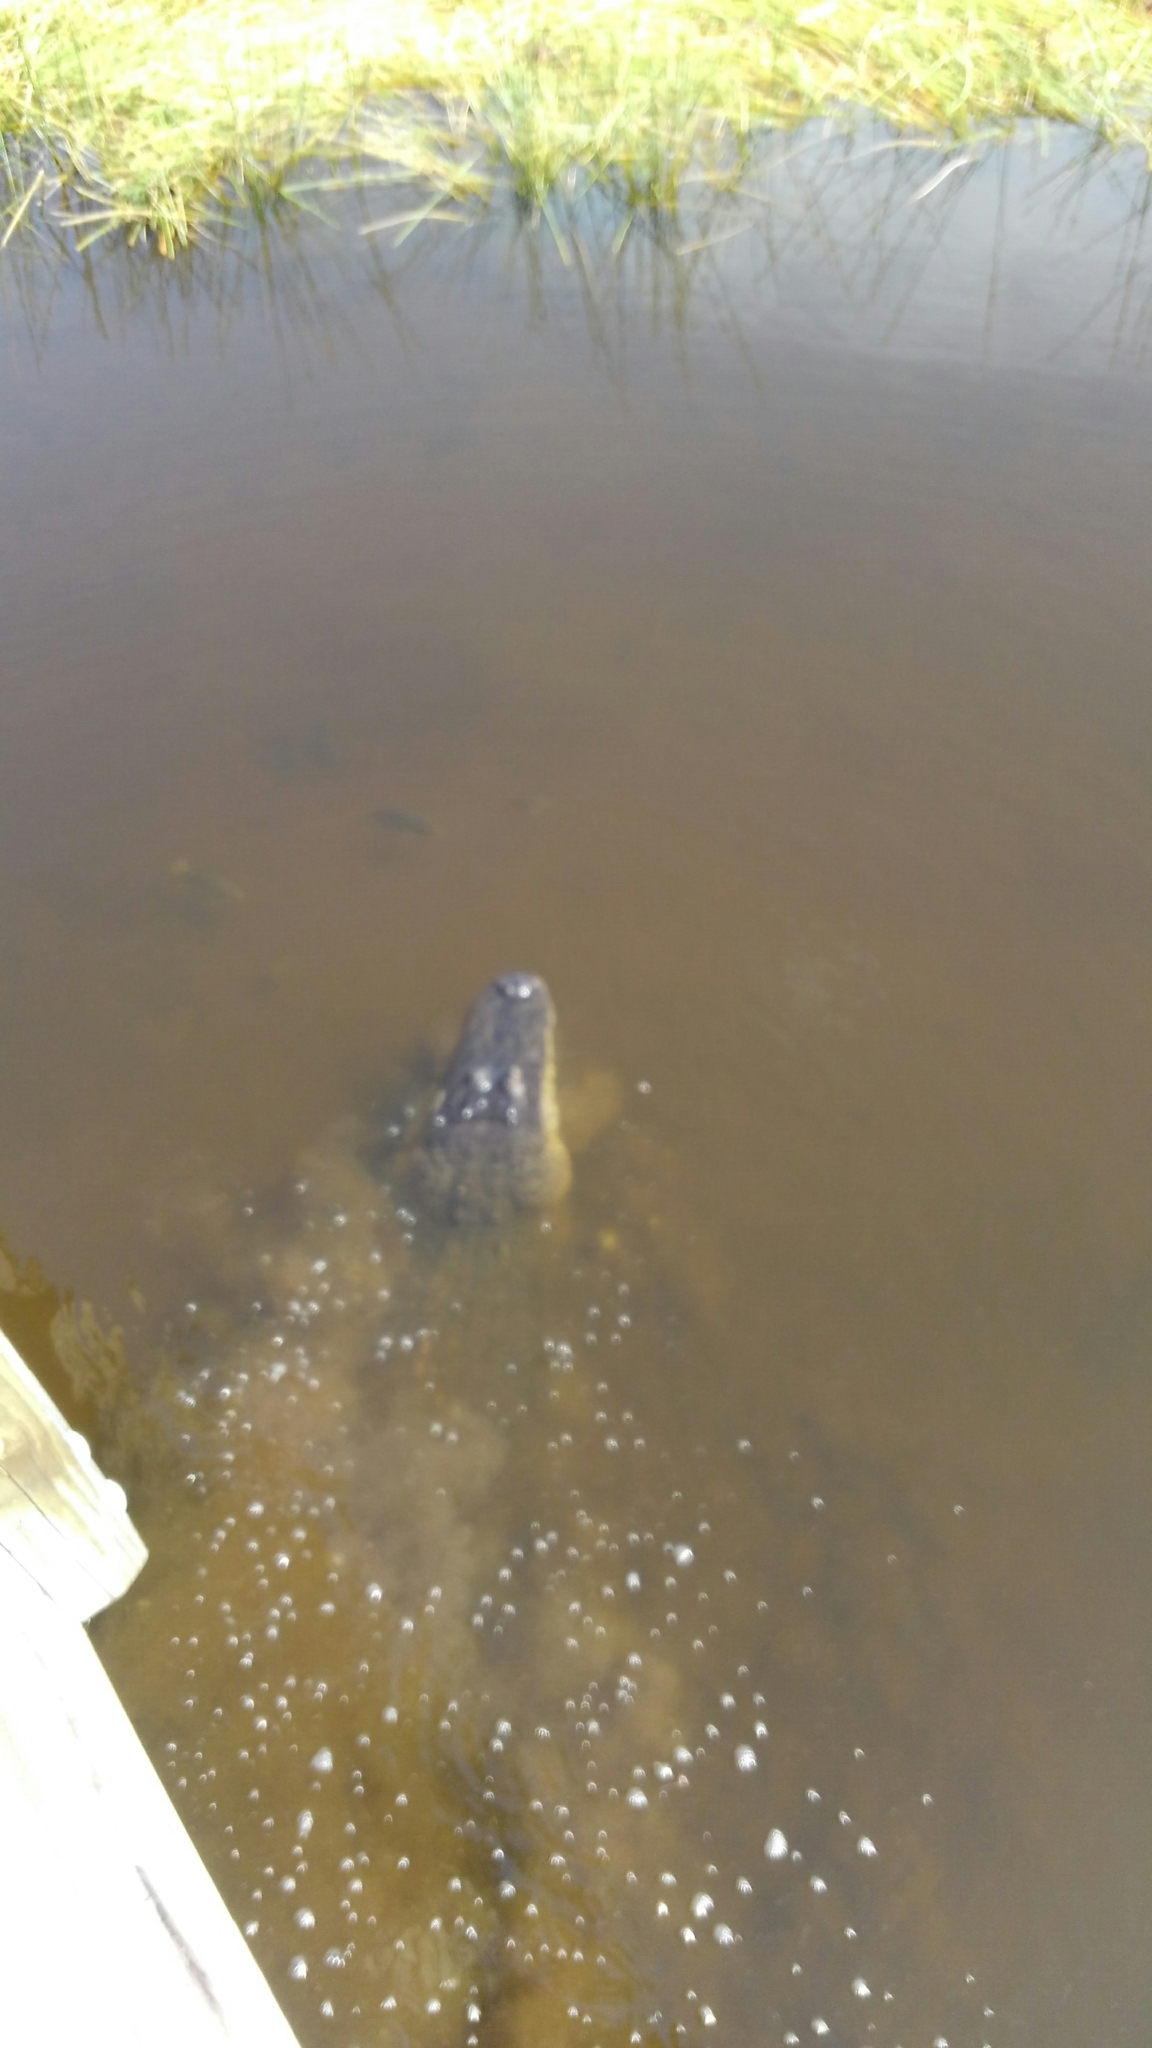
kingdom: Animalia
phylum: Chordata
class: Crocodylia
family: Alligatoridae
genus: Alligator
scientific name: Alligator mississippiensis
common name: American alligator
